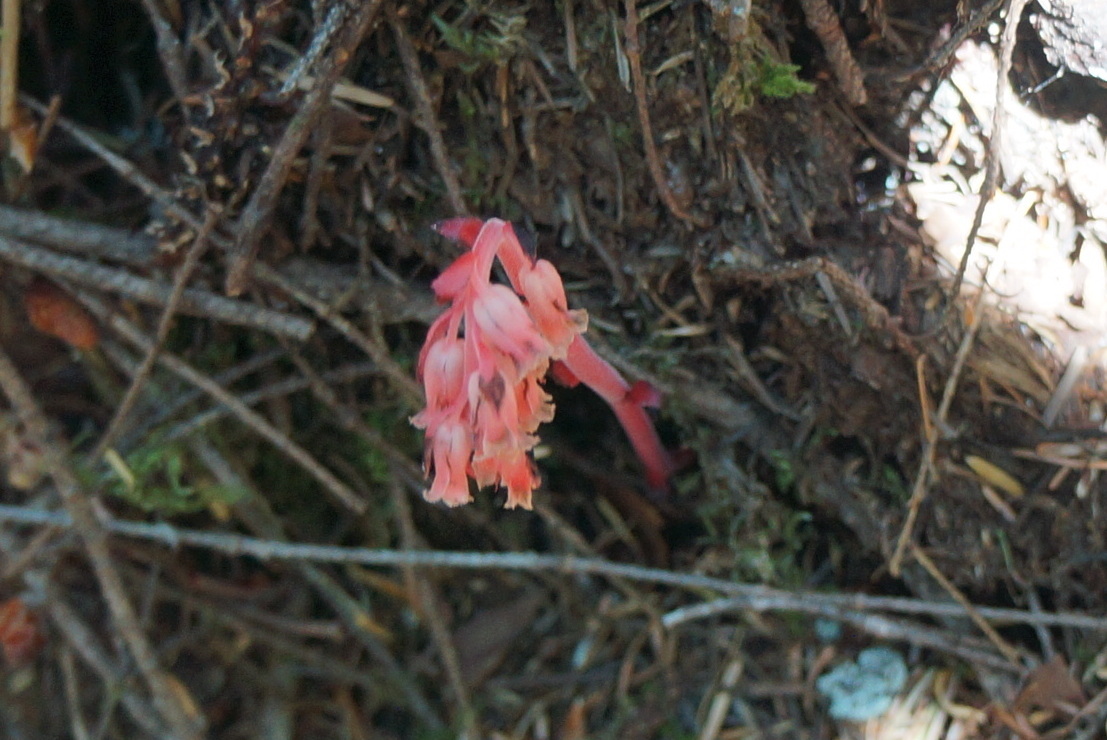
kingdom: Plantae
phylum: Tracheophyta
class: Magnoliopsida
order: Ericales
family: Ericaceae
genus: Hypopitys
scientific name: Hypopitys monotropa
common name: Yellow bird's-nest
